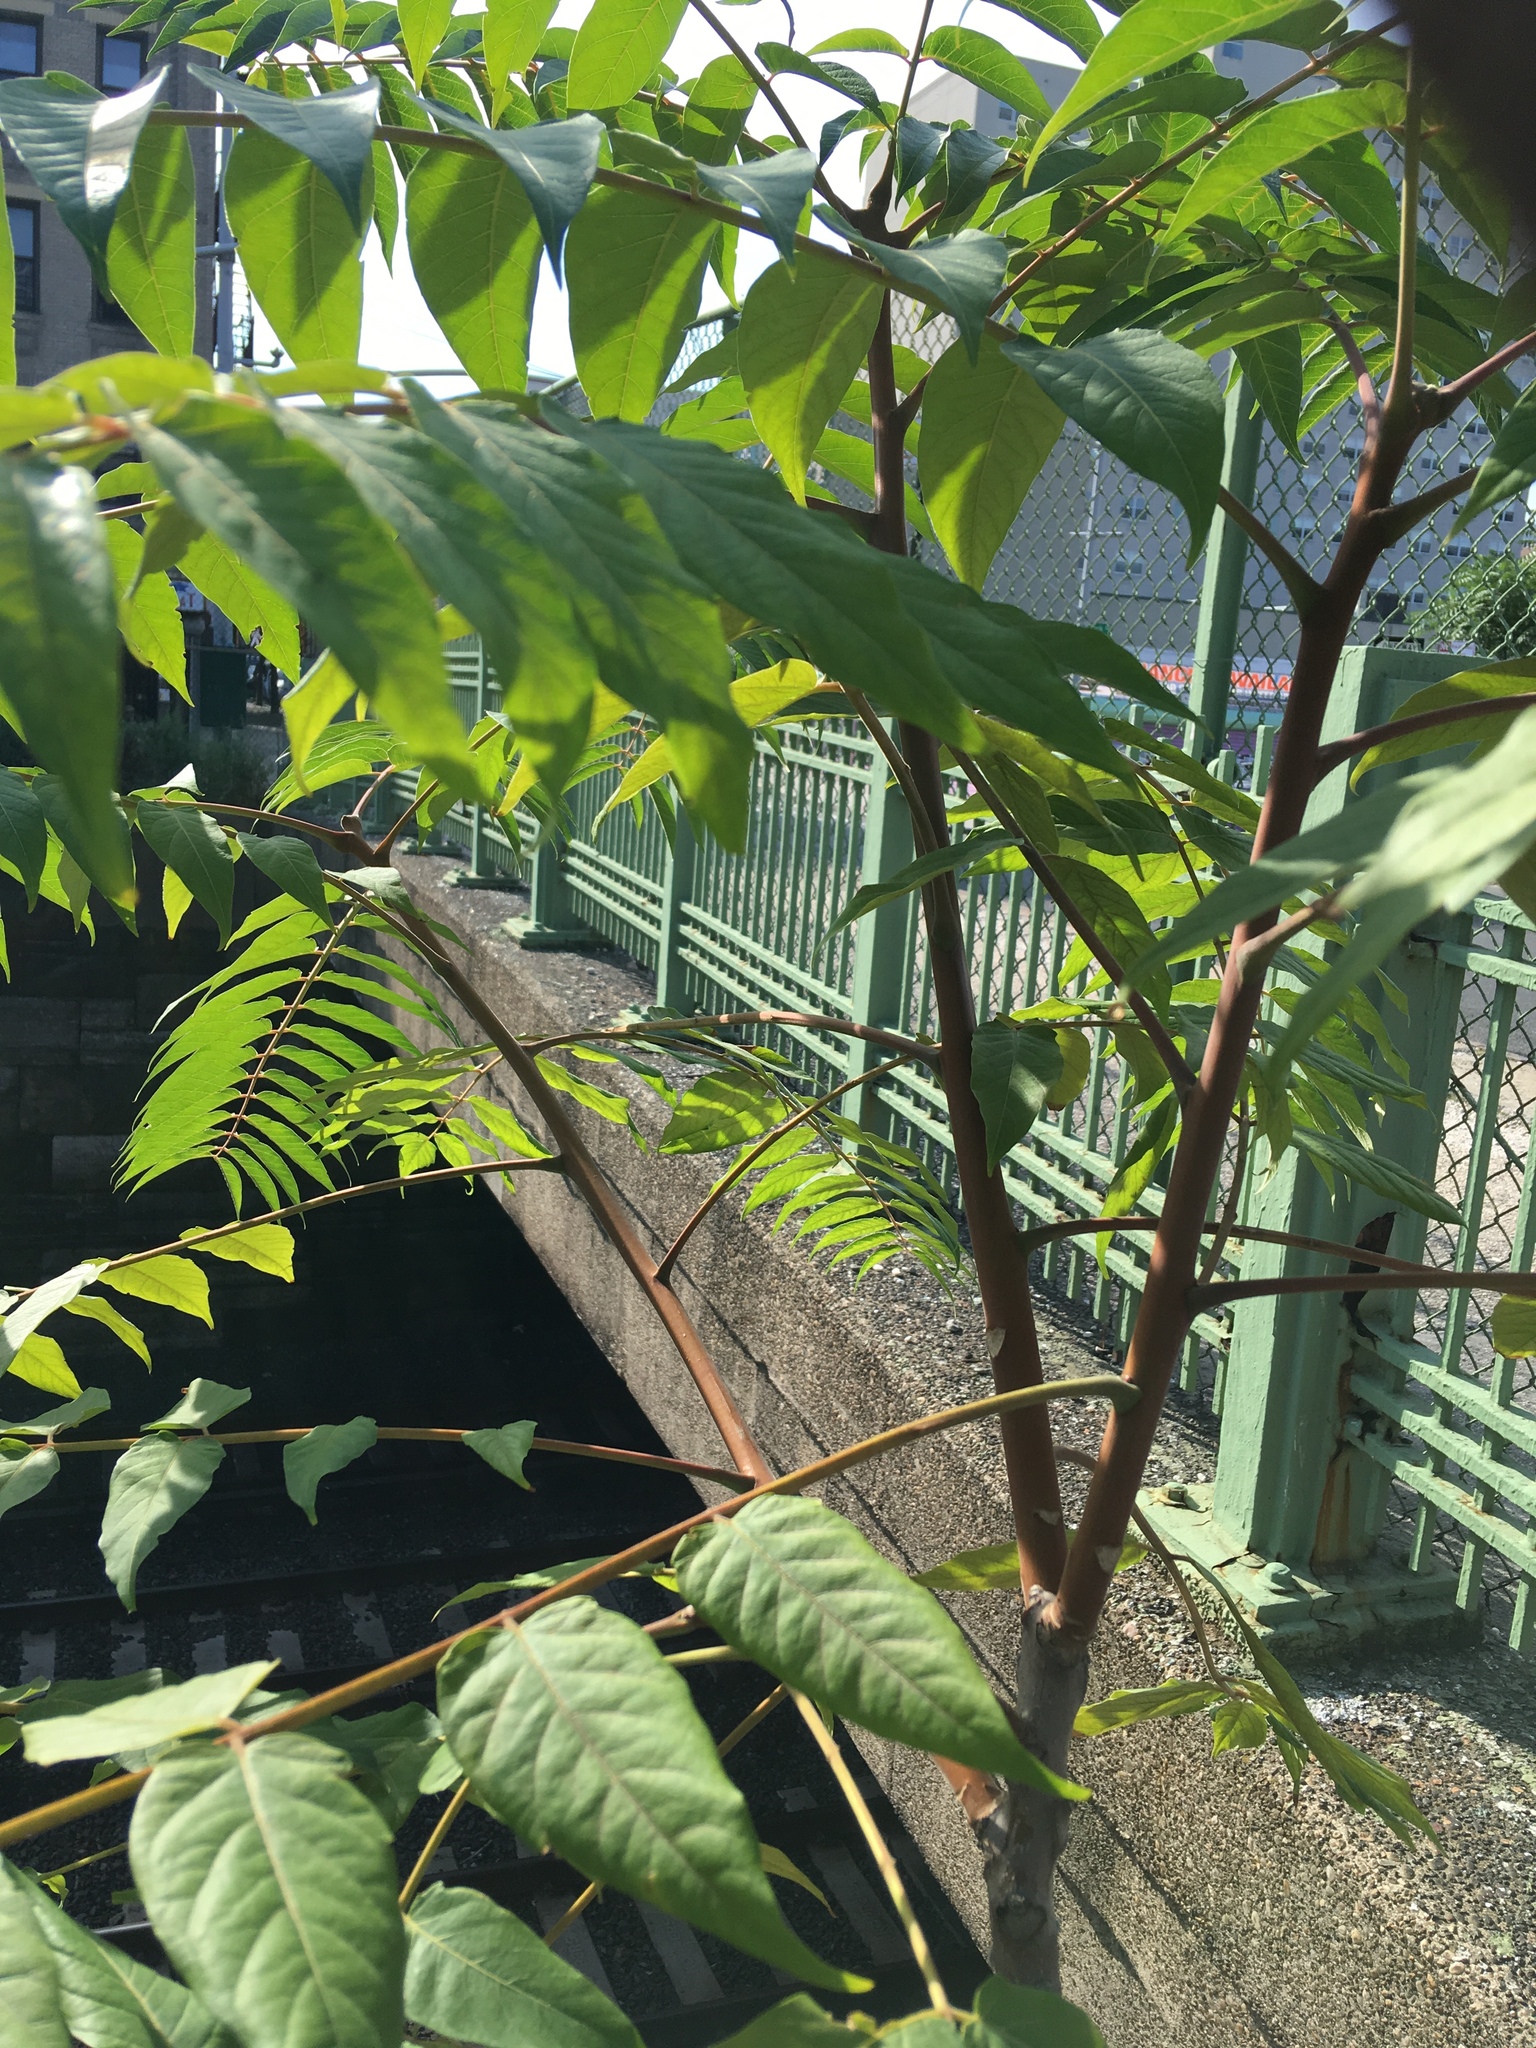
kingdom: Plantae
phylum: Tracheophyta
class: Magnoliopsida
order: Sapindales
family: Simaroubaceae
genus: Ailanthus
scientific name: Ailanthus altissima
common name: Tree-of-heaven
